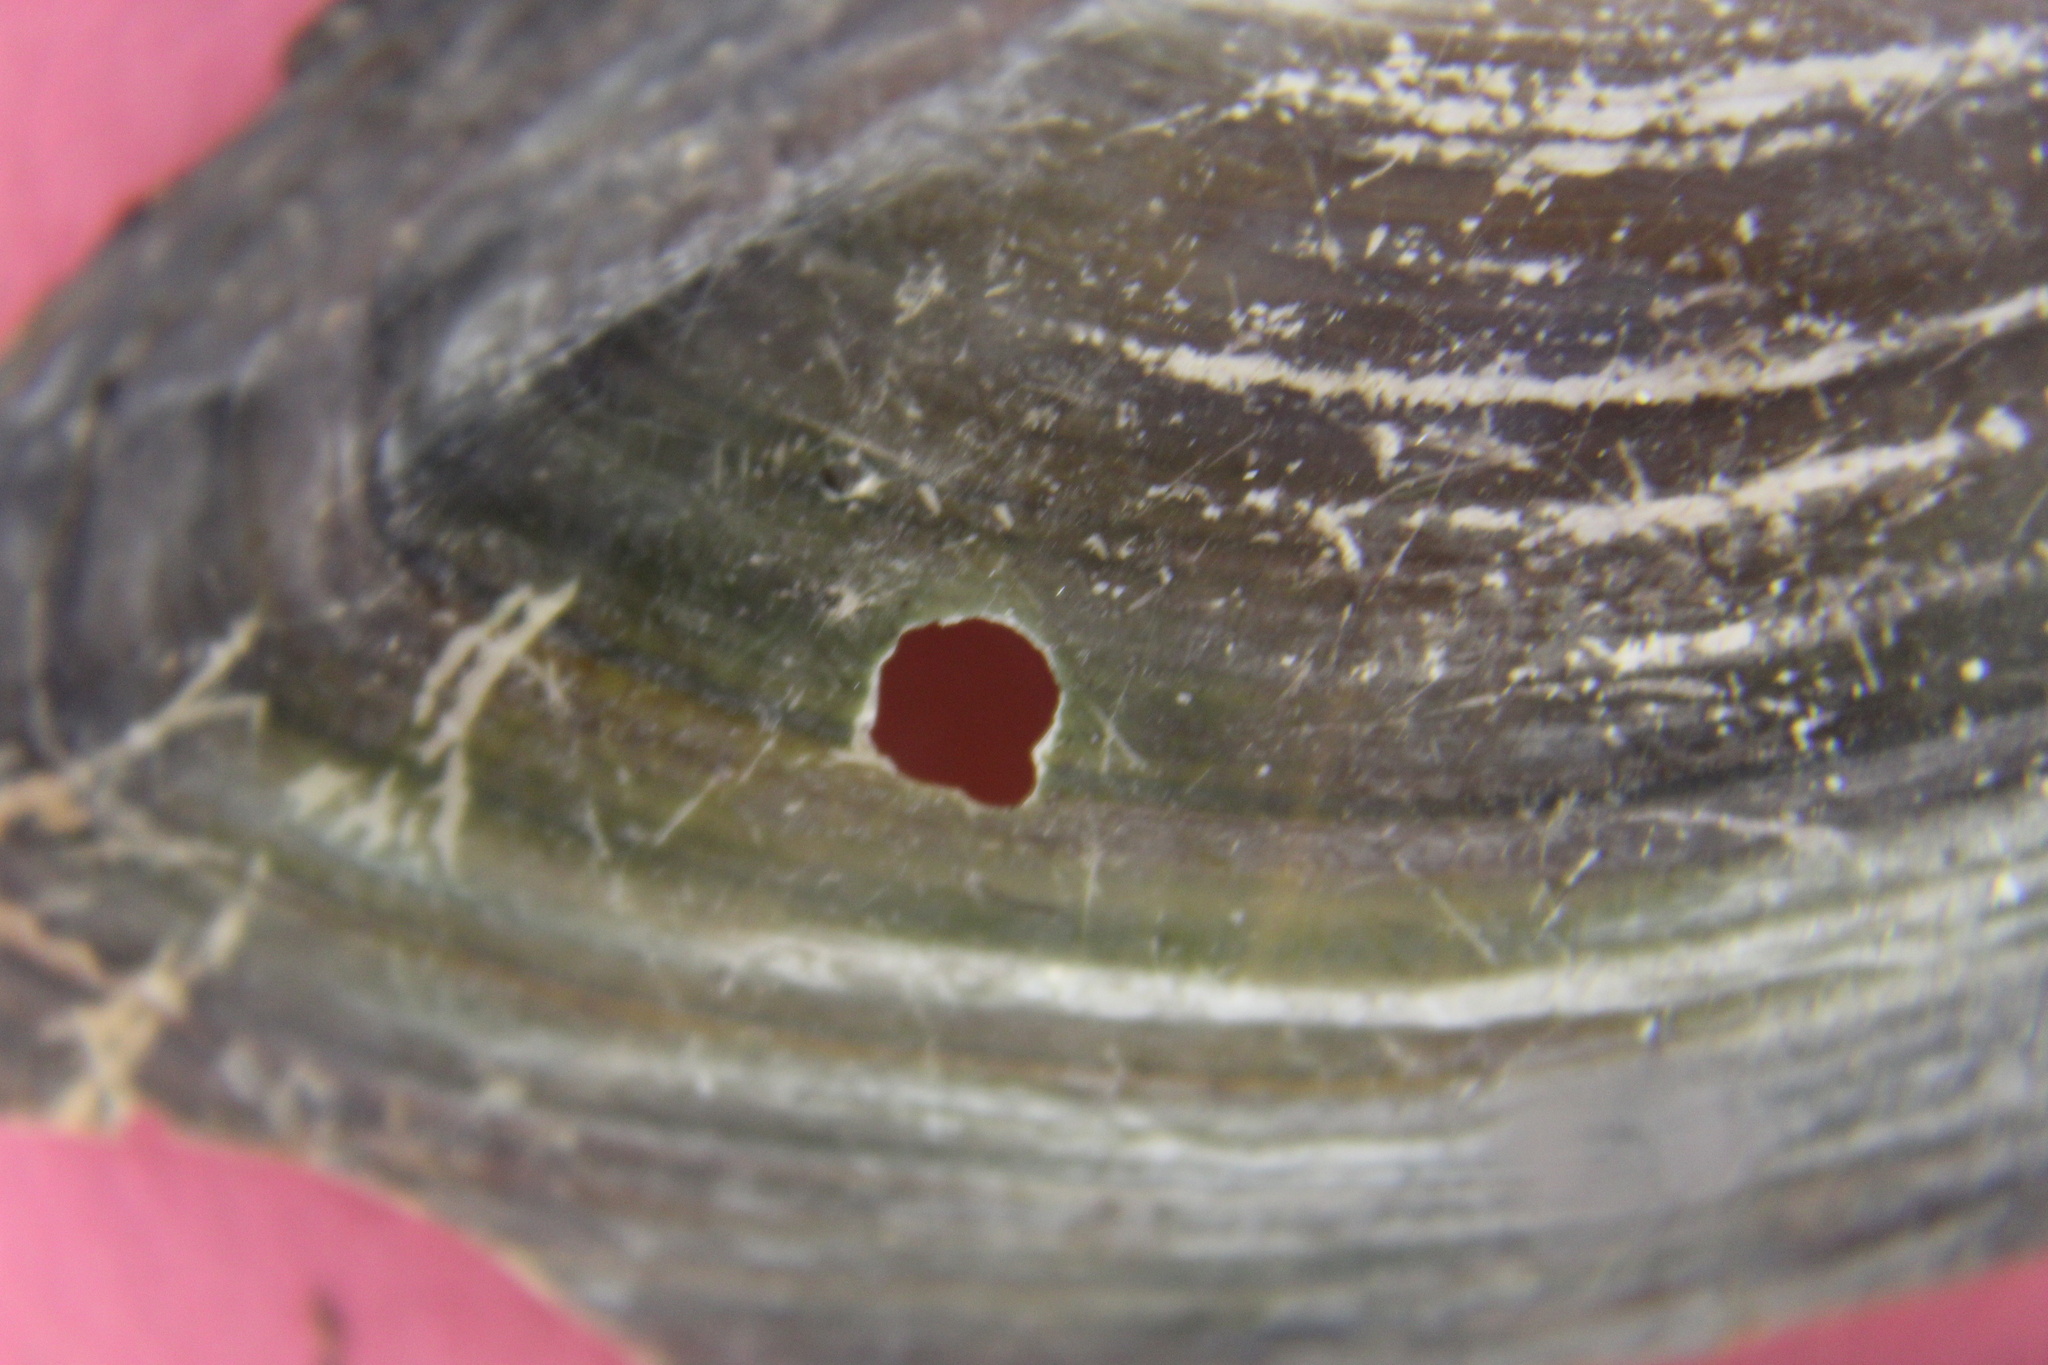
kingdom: Animalia
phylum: Mollusca
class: Bivalvia
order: Unionida
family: Unionidae
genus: Utterbackia
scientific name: Utterbackia imbecillis
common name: Paper pondshell
